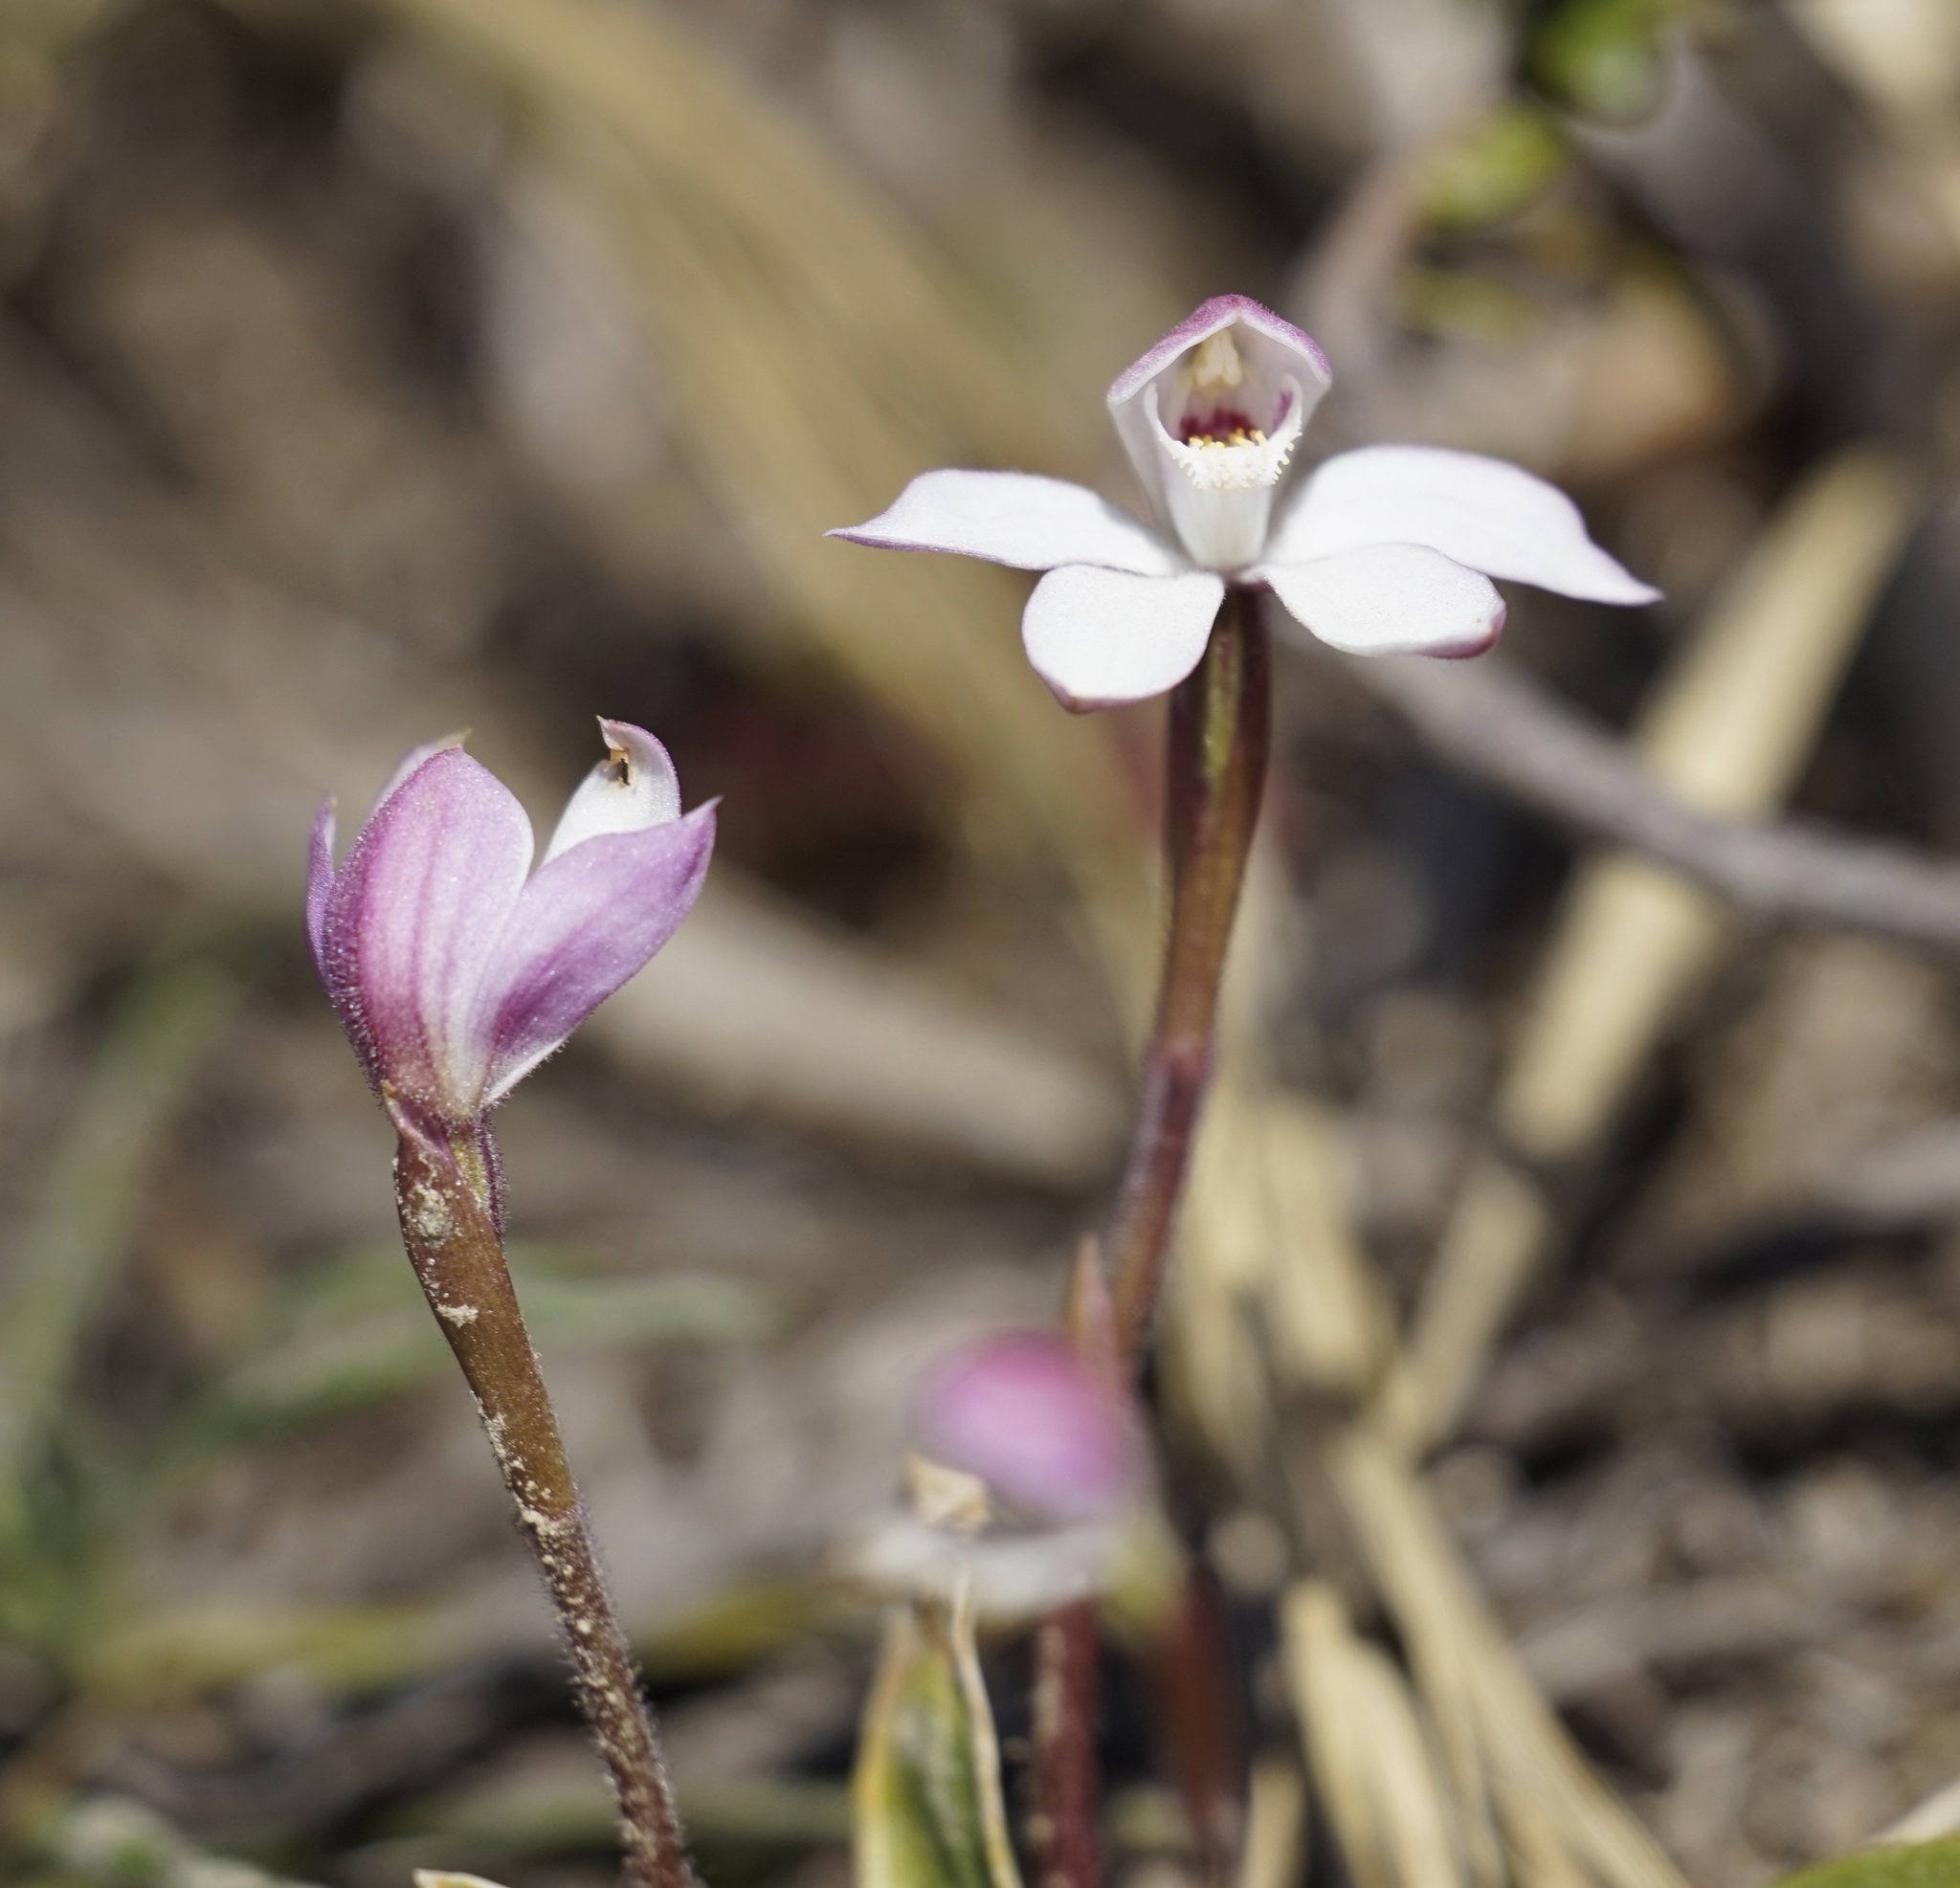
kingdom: Plantae
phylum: Tracheophyta
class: Liliopsida
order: Asparagales
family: Orchidaceae
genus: Caladenia
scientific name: Caladenia alpina
